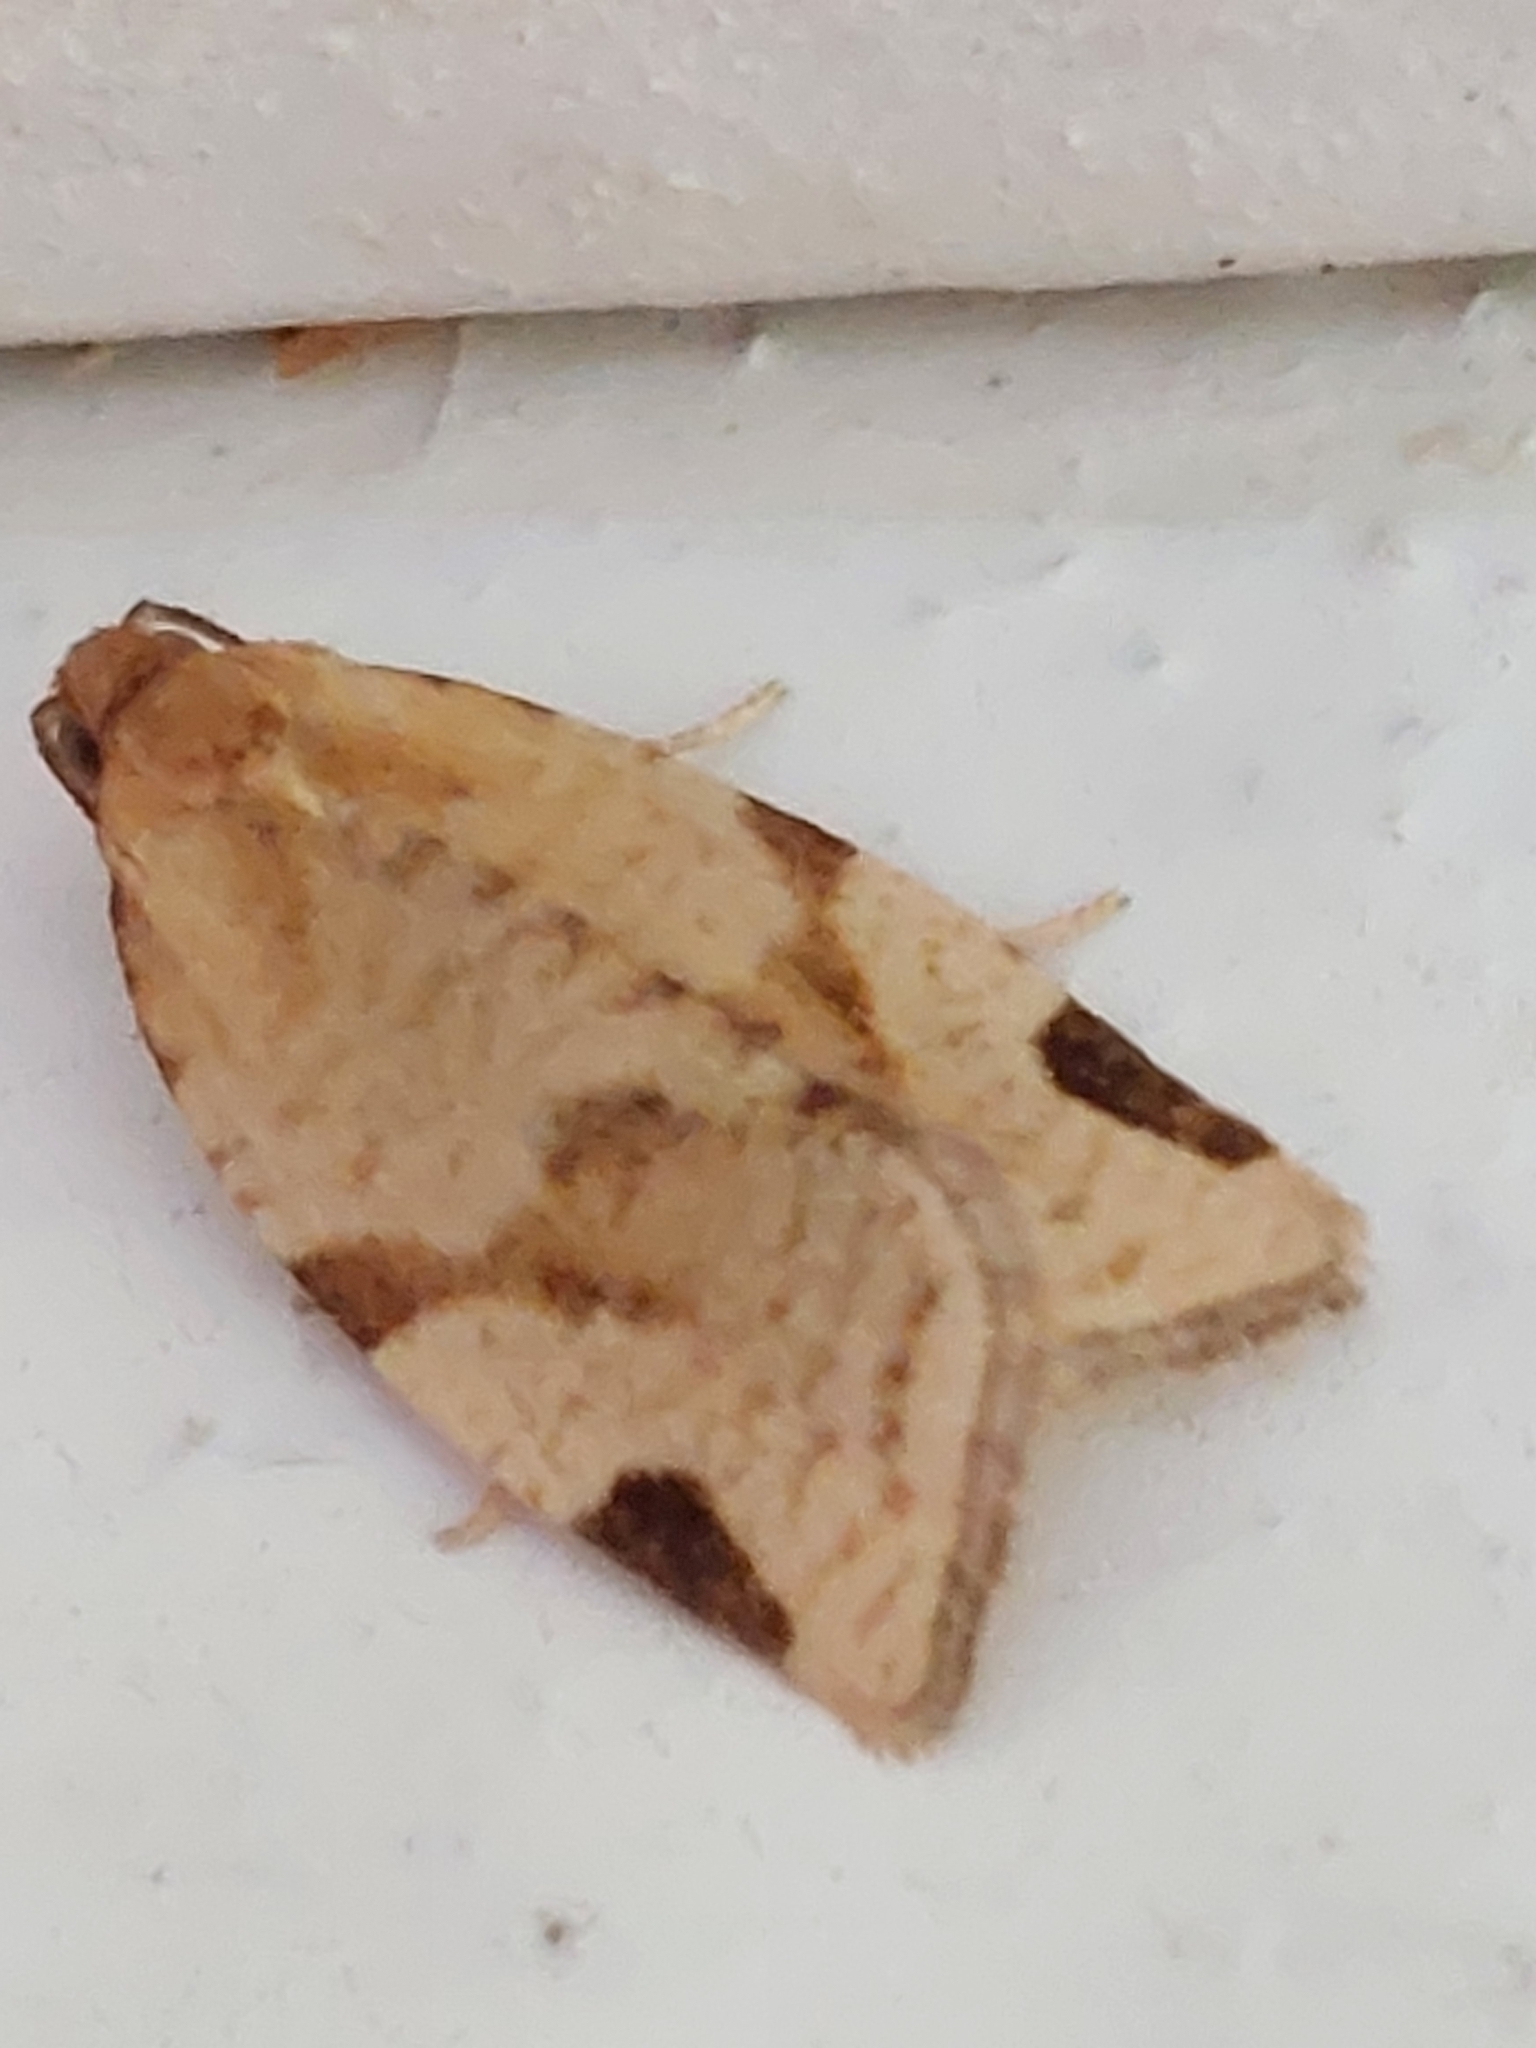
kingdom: Animalia
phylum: Arthropoda
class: Insecta
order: Lepidoptera
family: Tortricidae
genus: Paramesia
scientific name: Paramesia gnomana
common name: Small straw twist
